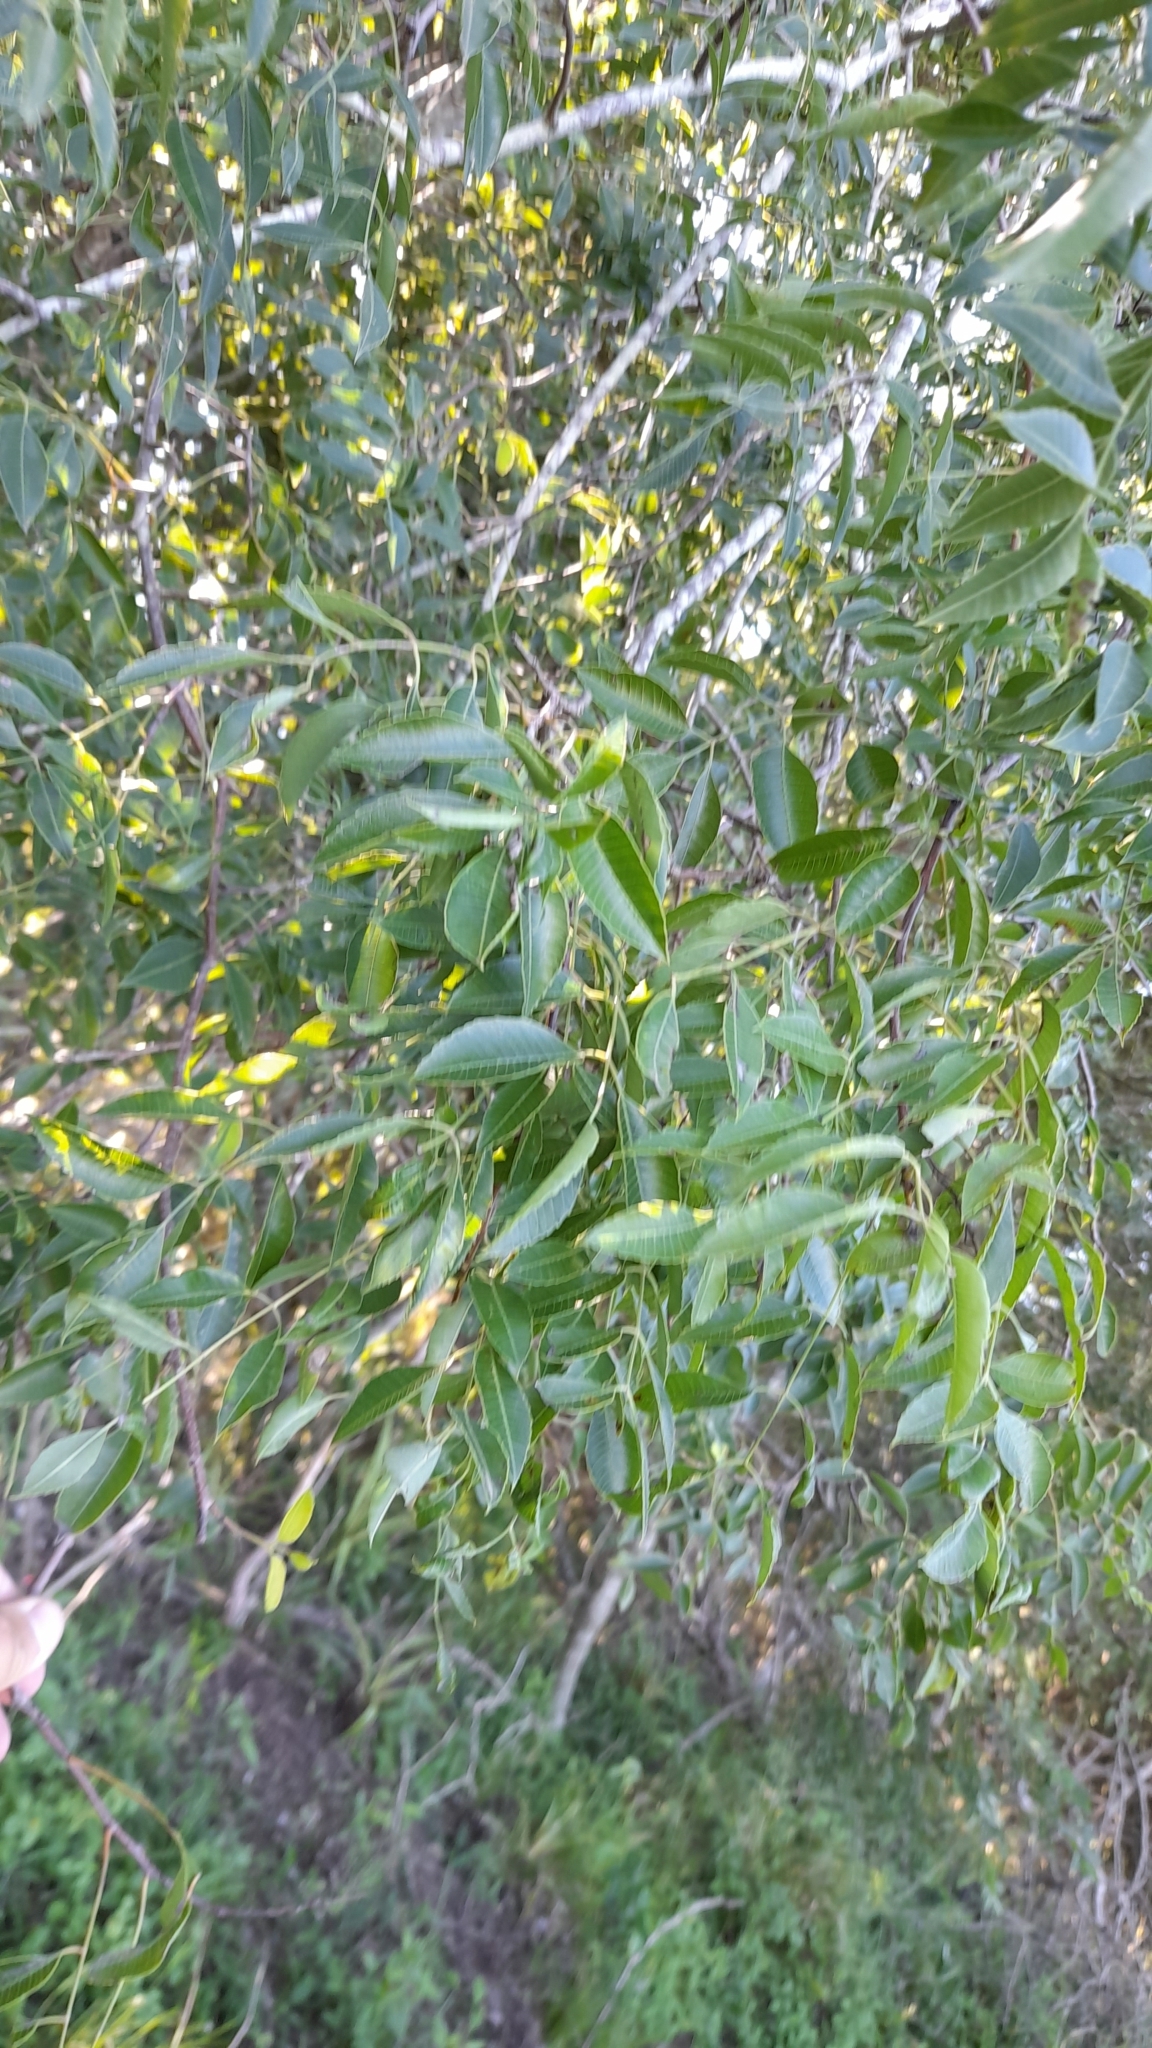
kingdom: Plantae
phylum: Tracheophyta
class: Magnoliopsida
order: Sapindales
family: Anacardiaceae
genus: Myracrodruon
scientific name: Myracrodruon balansae
